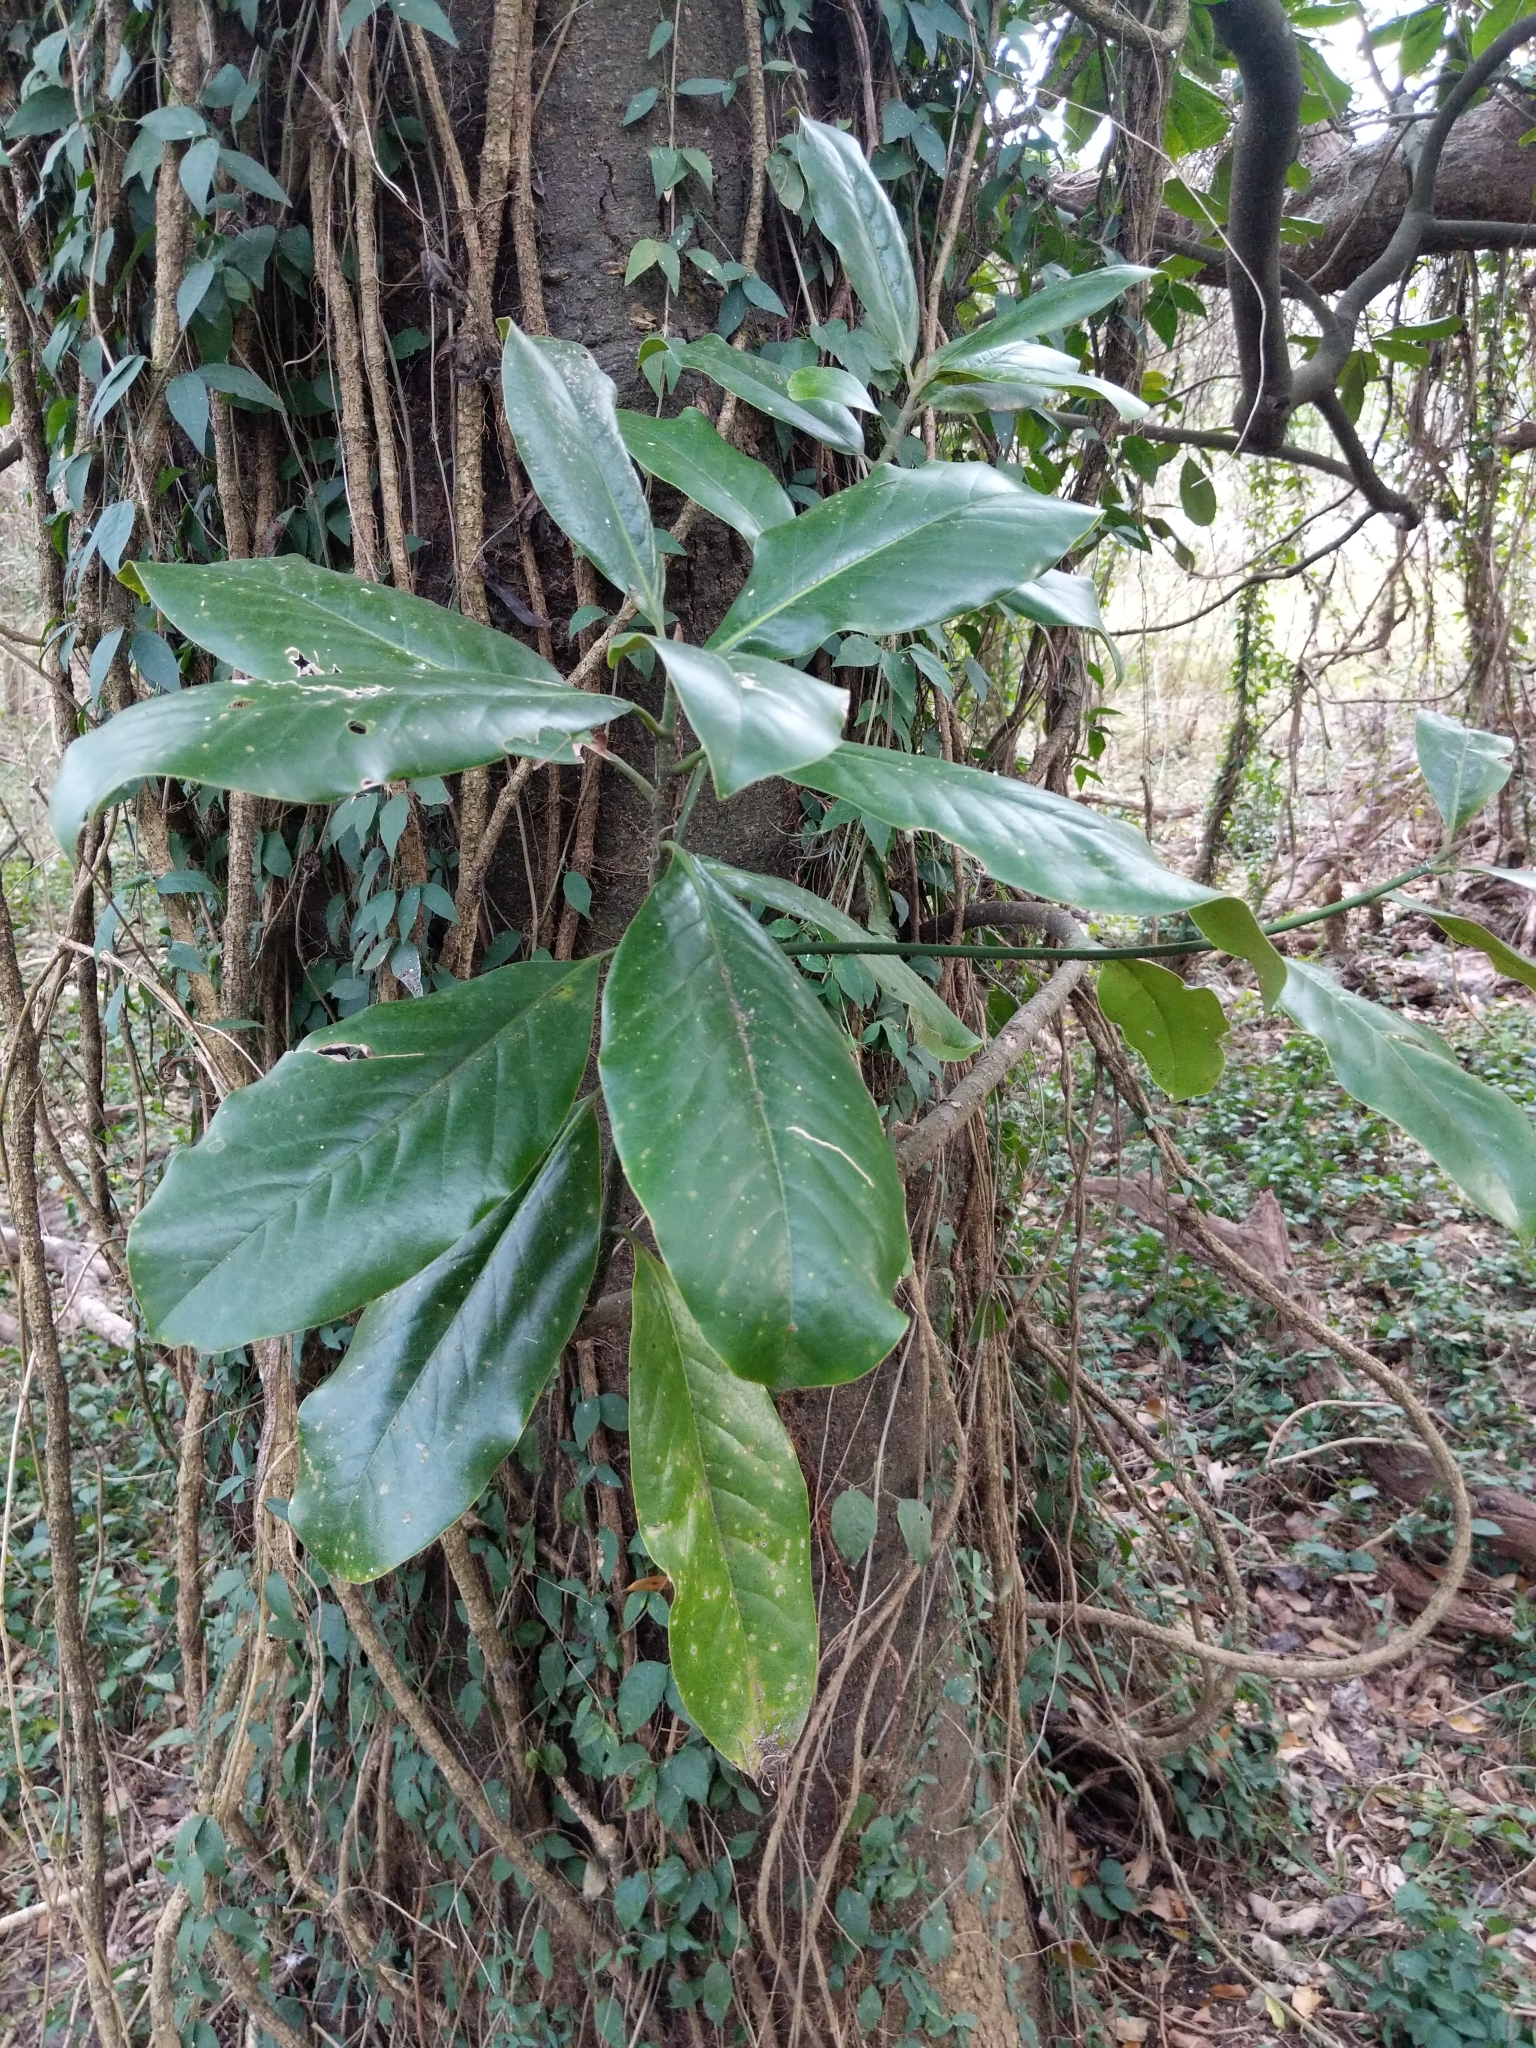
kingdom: Plantae
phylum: Tracheophyta
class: Magnoliopsida
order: Magnoliales
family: Magnoliaceae
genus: Magnolia
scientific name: Magnolia grandiflora
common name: Southern magnolia
